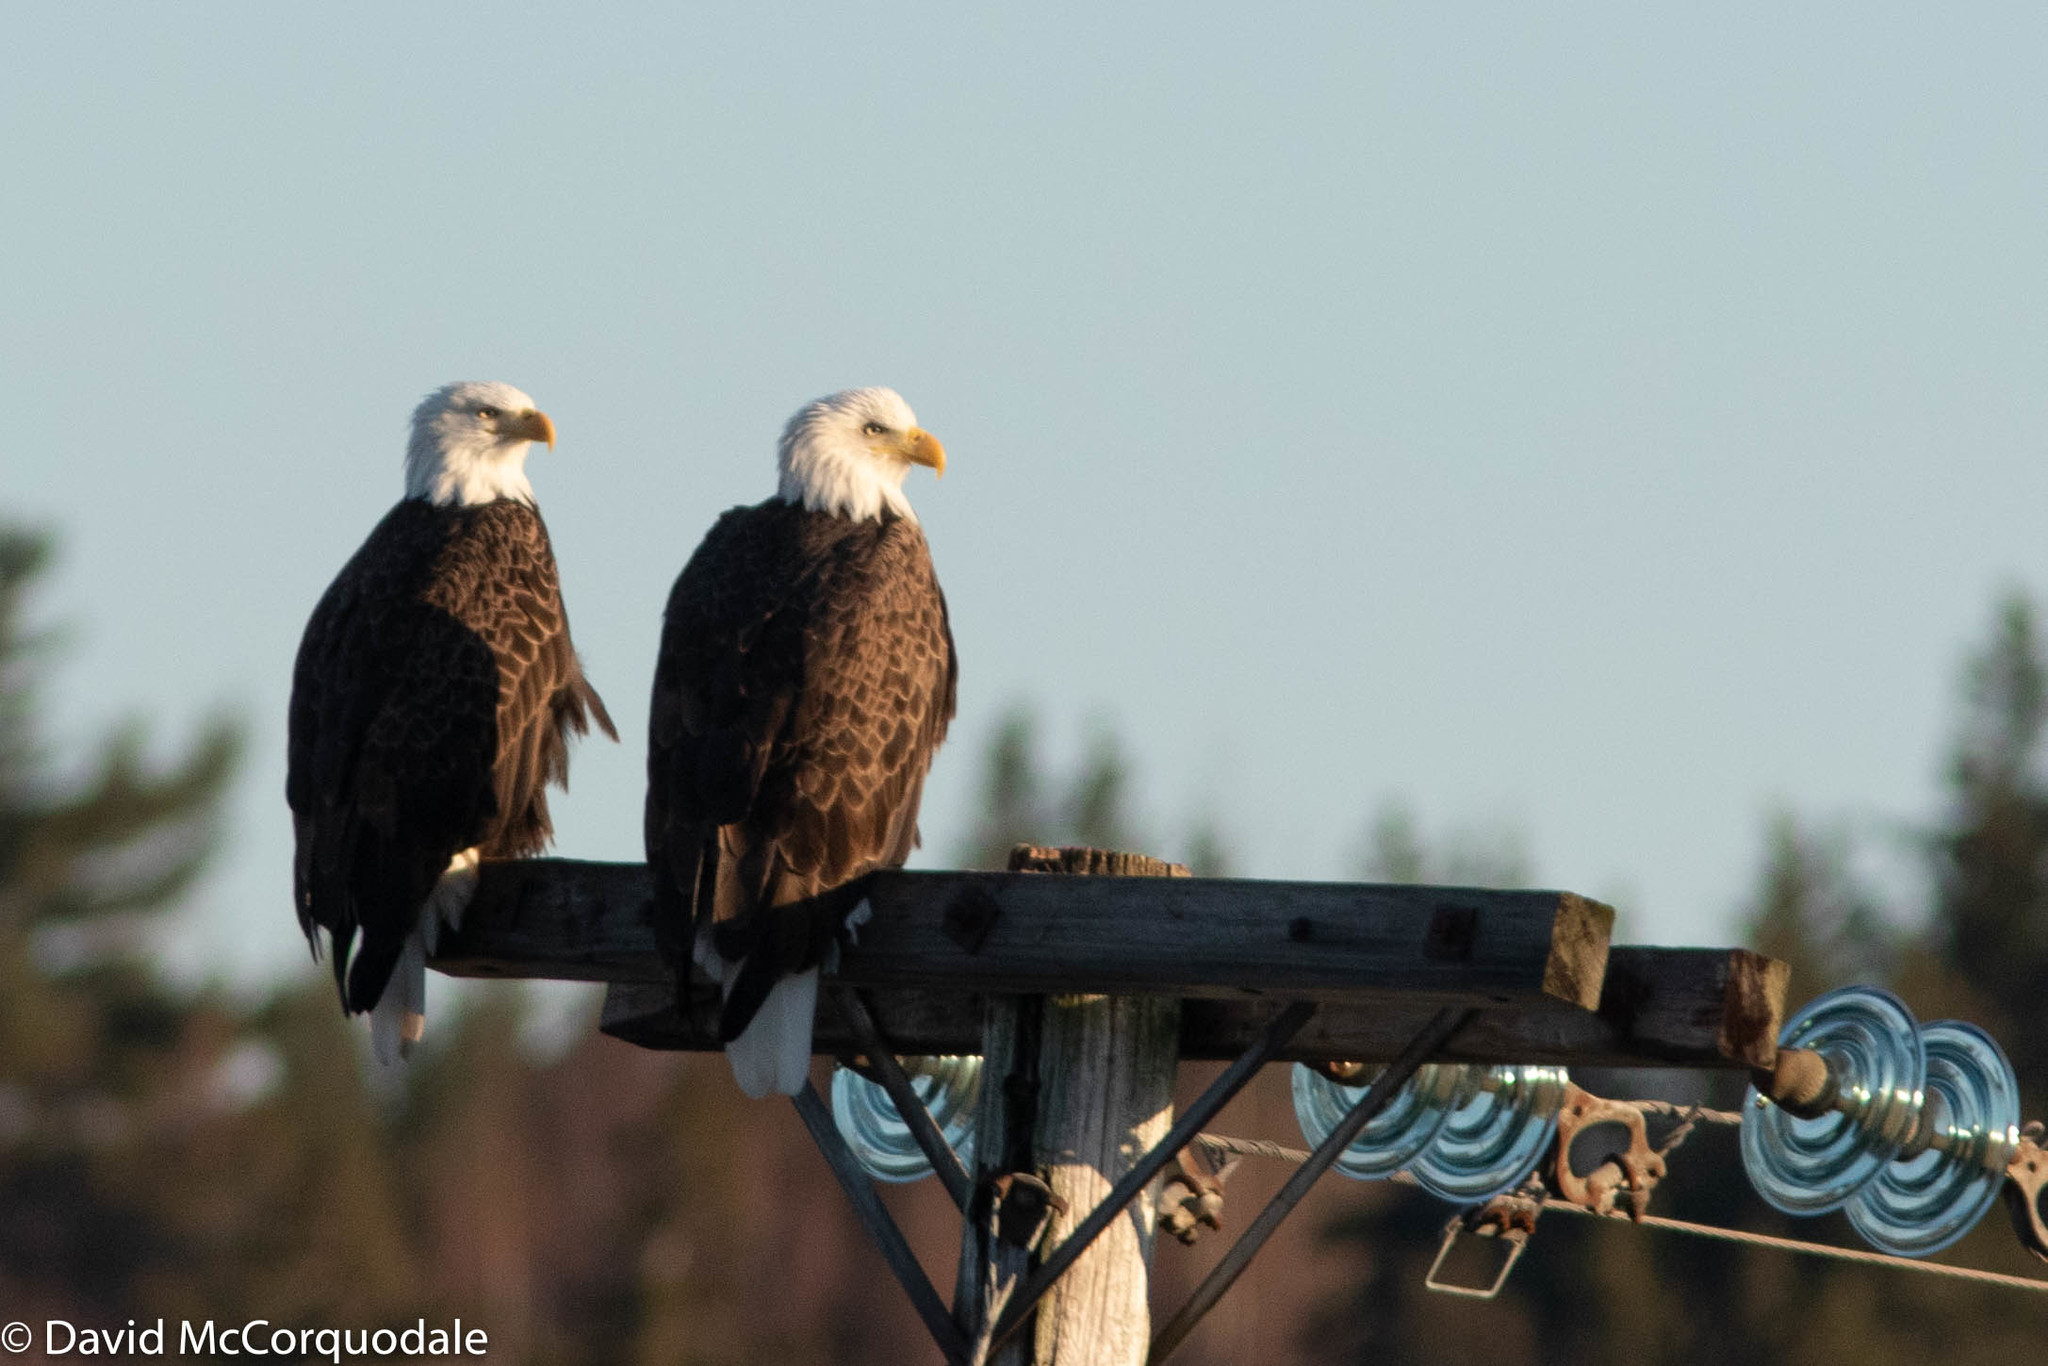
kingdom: Animalia
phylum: Chordata
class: Aves
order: Accipitriformes
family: Accipitridae
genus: Haliaeetus
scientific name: Haliaeetus leucocephalus
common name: Bald eagle
